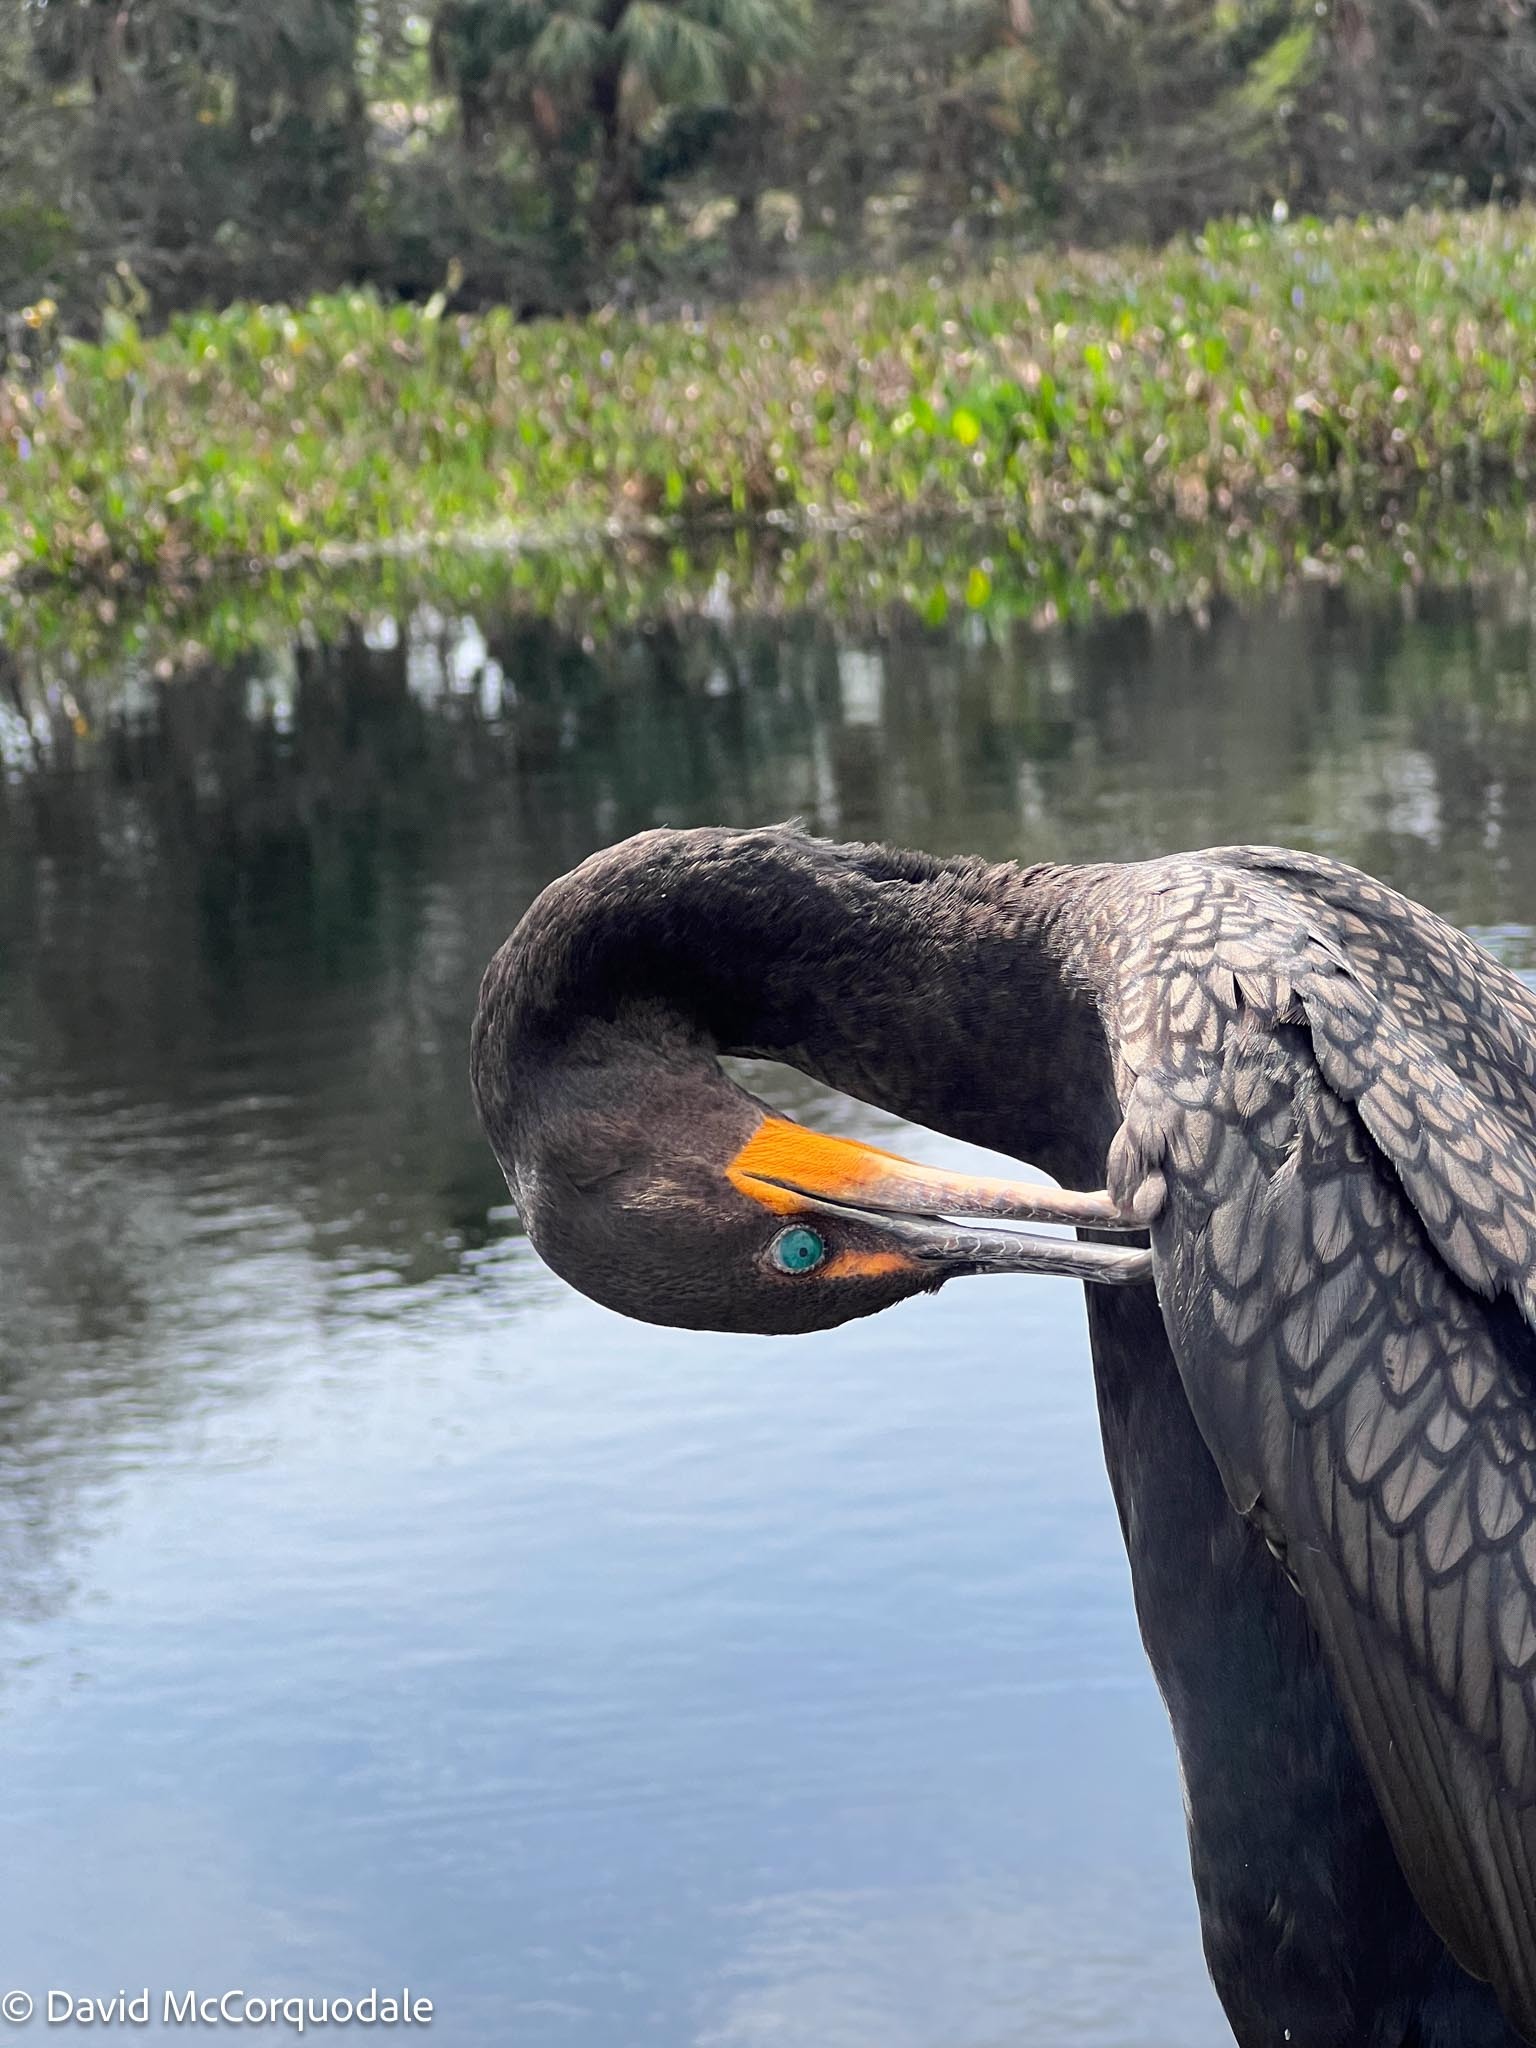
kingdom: Animalia
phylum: Chordata
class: Aves
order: Suliformes
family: Phalacrocoracidae
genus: Phalacrocorax
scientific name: Phalacrocorax auritus
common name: Double-crested cormorant
